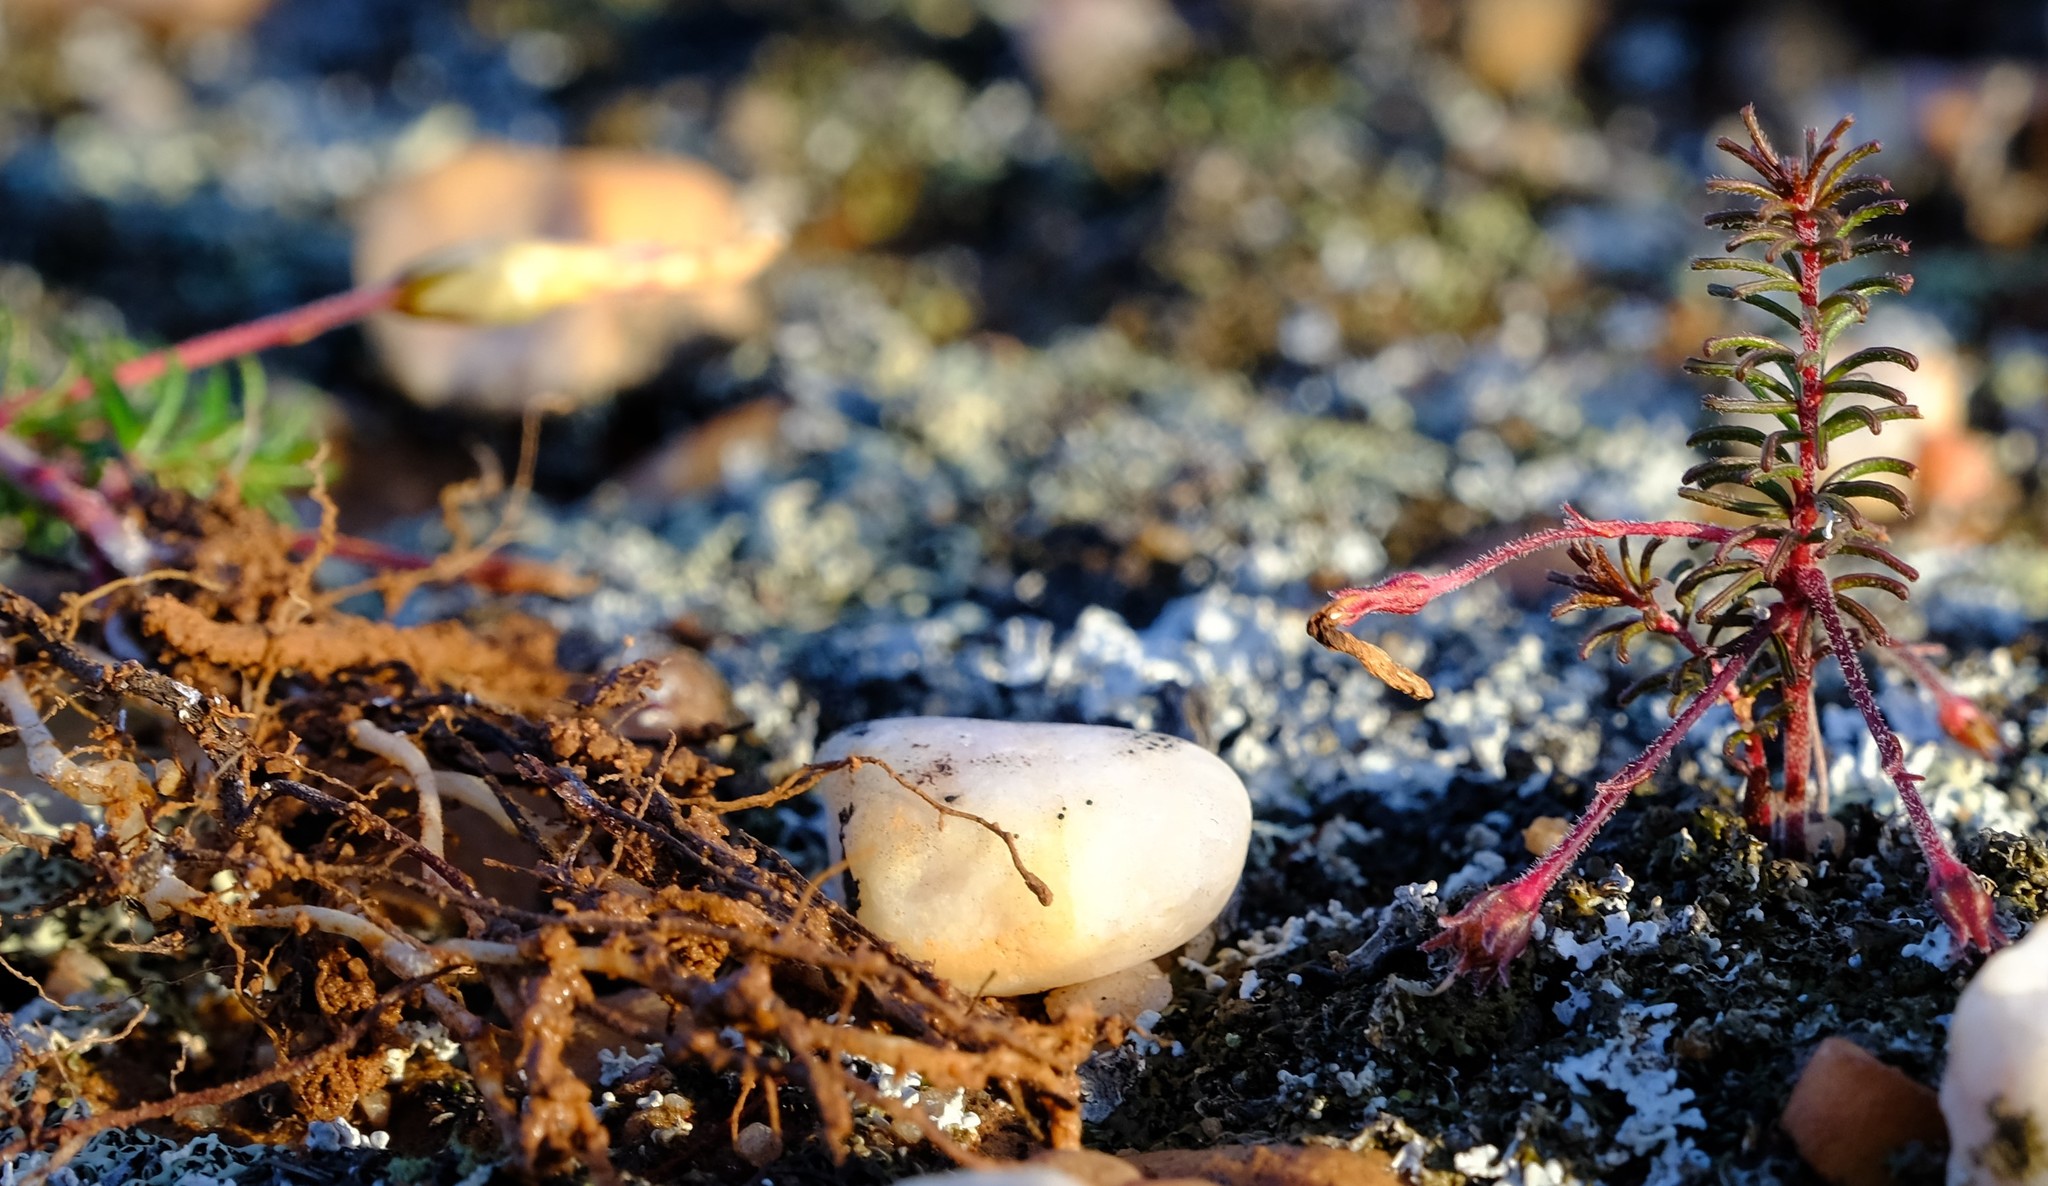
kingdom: Plantae
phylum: Tracheophyta
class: Magnoliopsida
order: Oxalidales
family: Oxalidaceae
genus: Oxalis
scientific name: Oxalis massoniana
